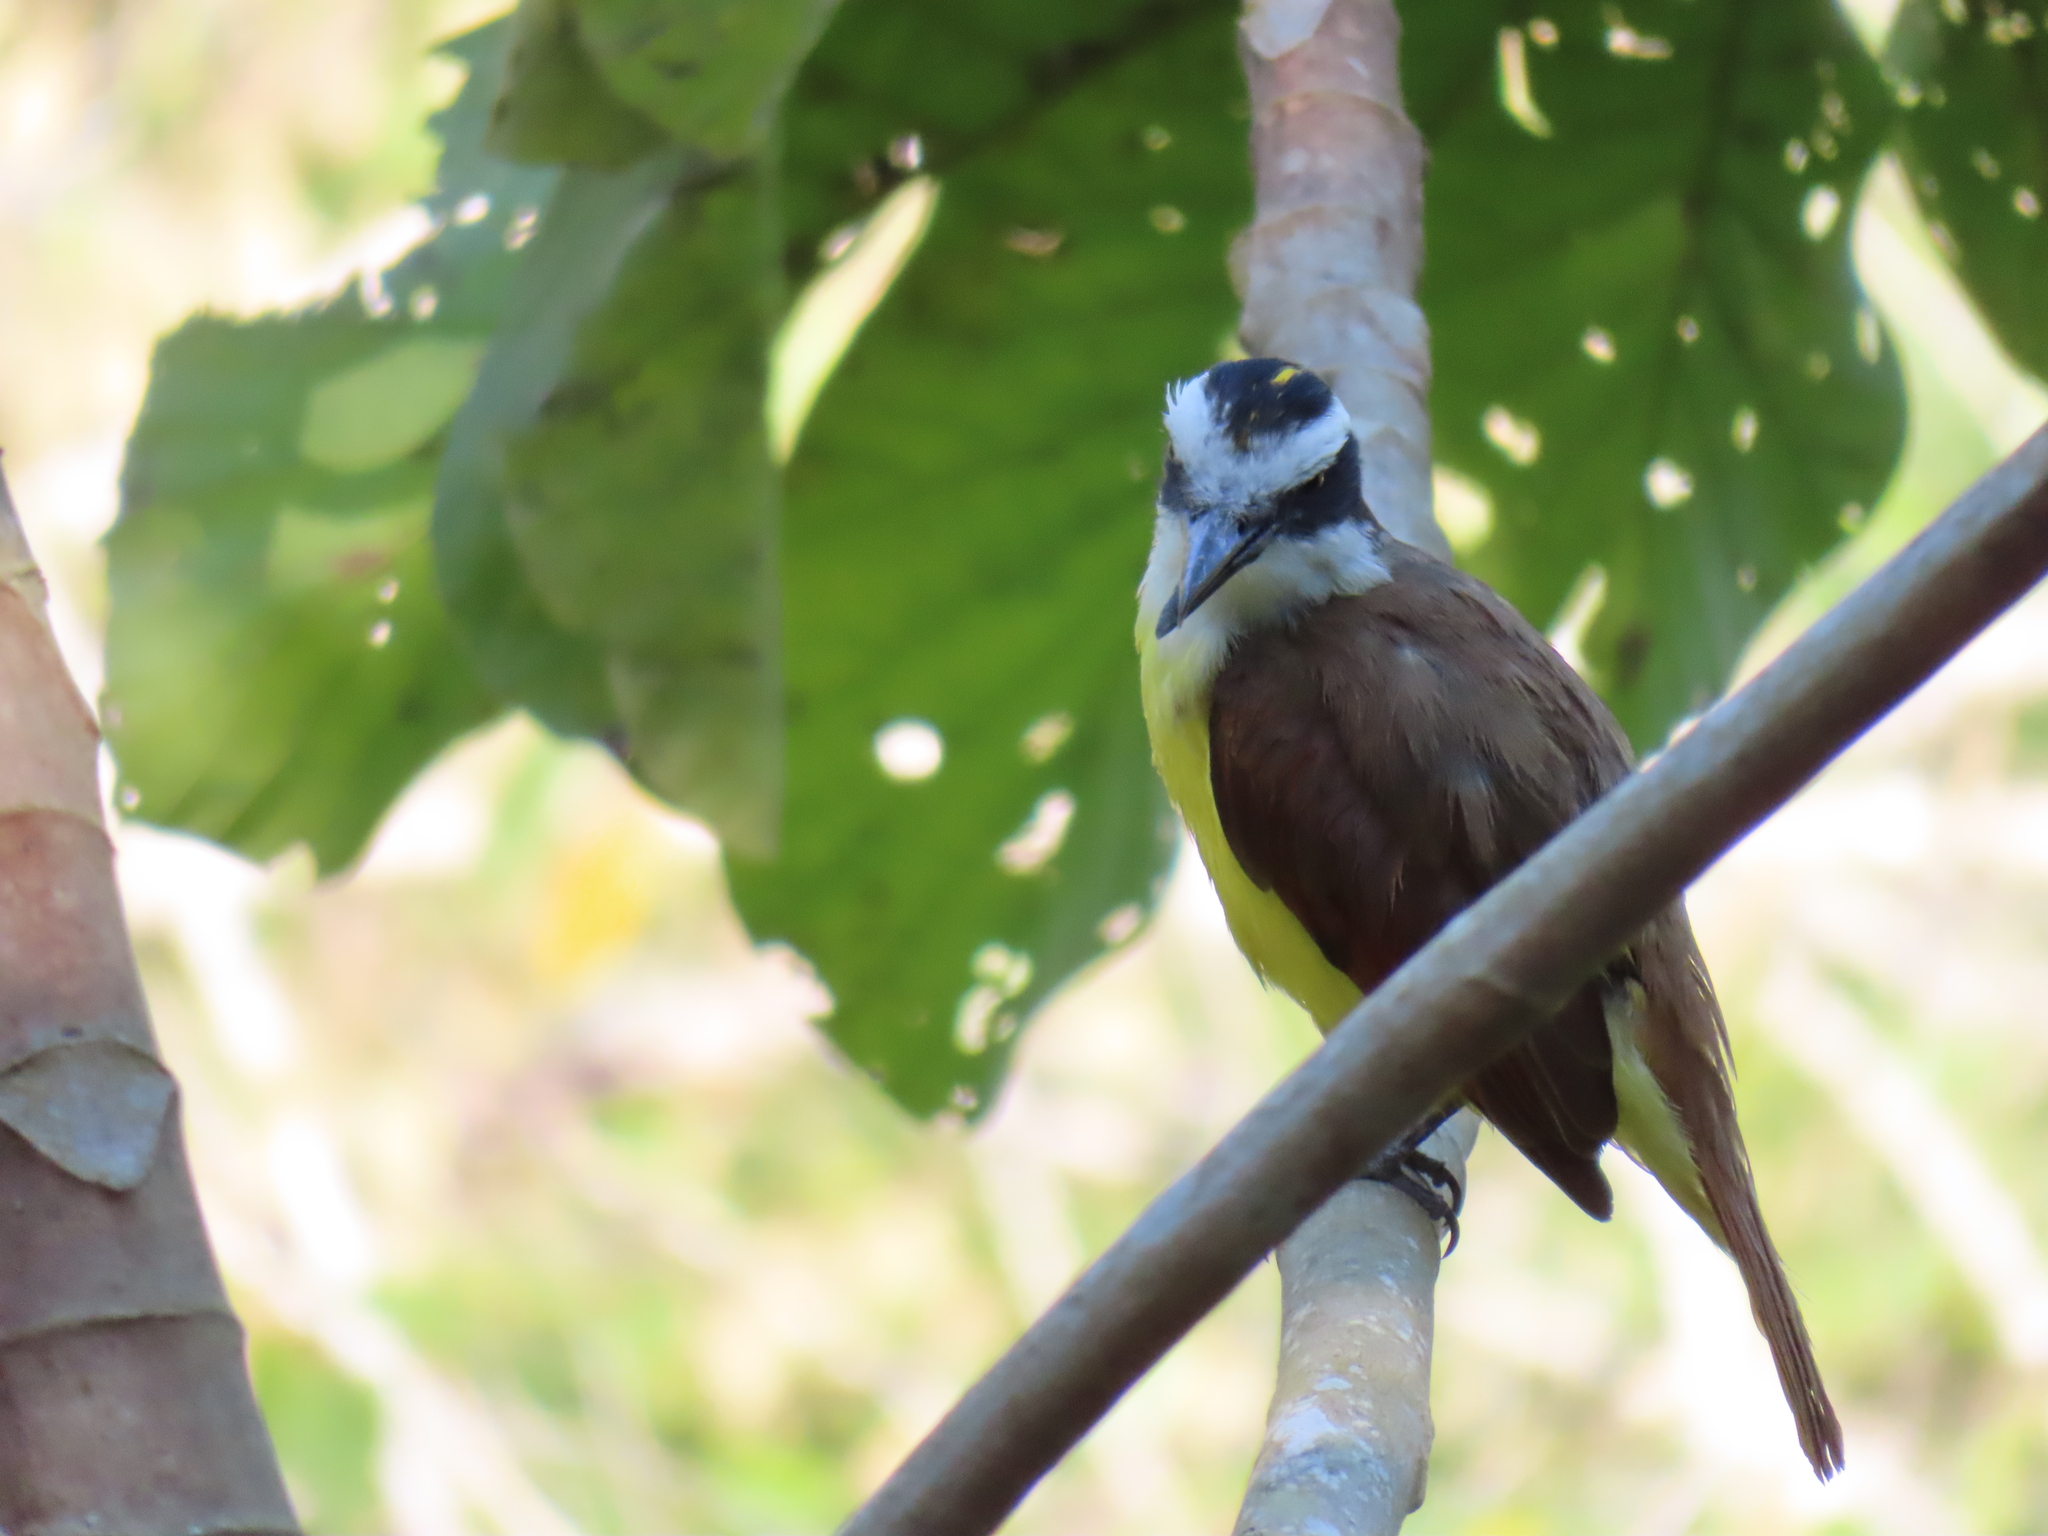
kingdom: Animalia
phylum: Chordata
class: Aves
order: Passeriformes
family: Tyrannidae
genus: Pitangus
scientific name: Pitangus sulphuratus
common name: Great kiskadee
